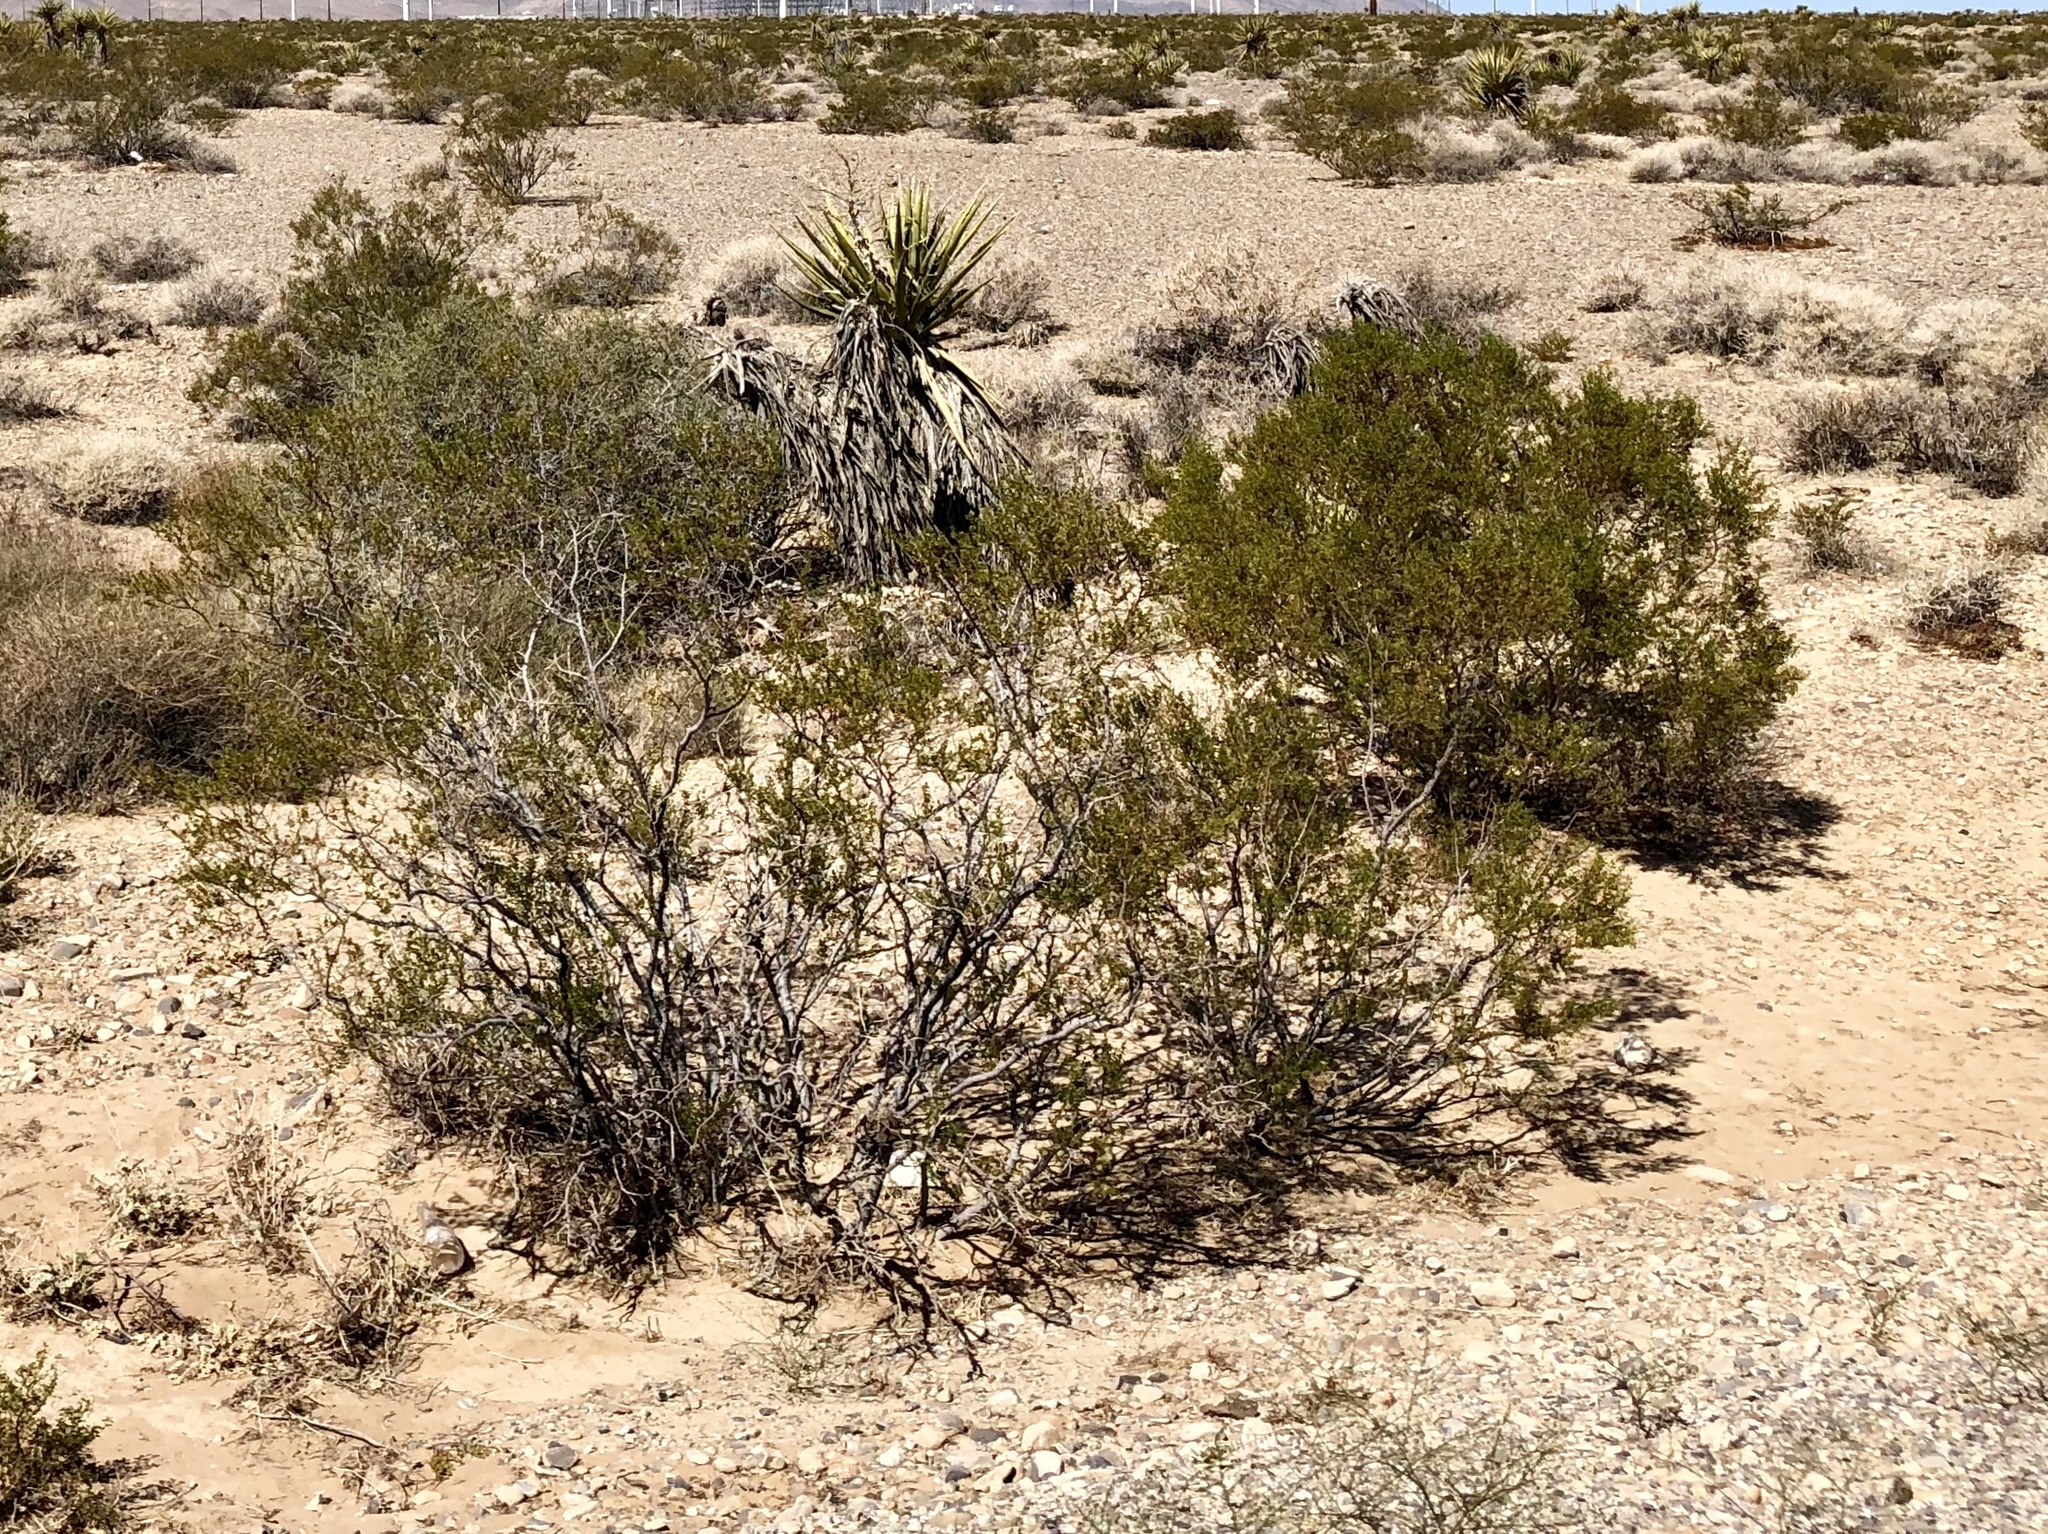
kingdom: Plantae
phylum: Tracheophyta
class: Magnoliopsida
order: Zygophyllales
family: Zygophyllaceae
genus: Larrea
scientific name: Larrea tridentata
